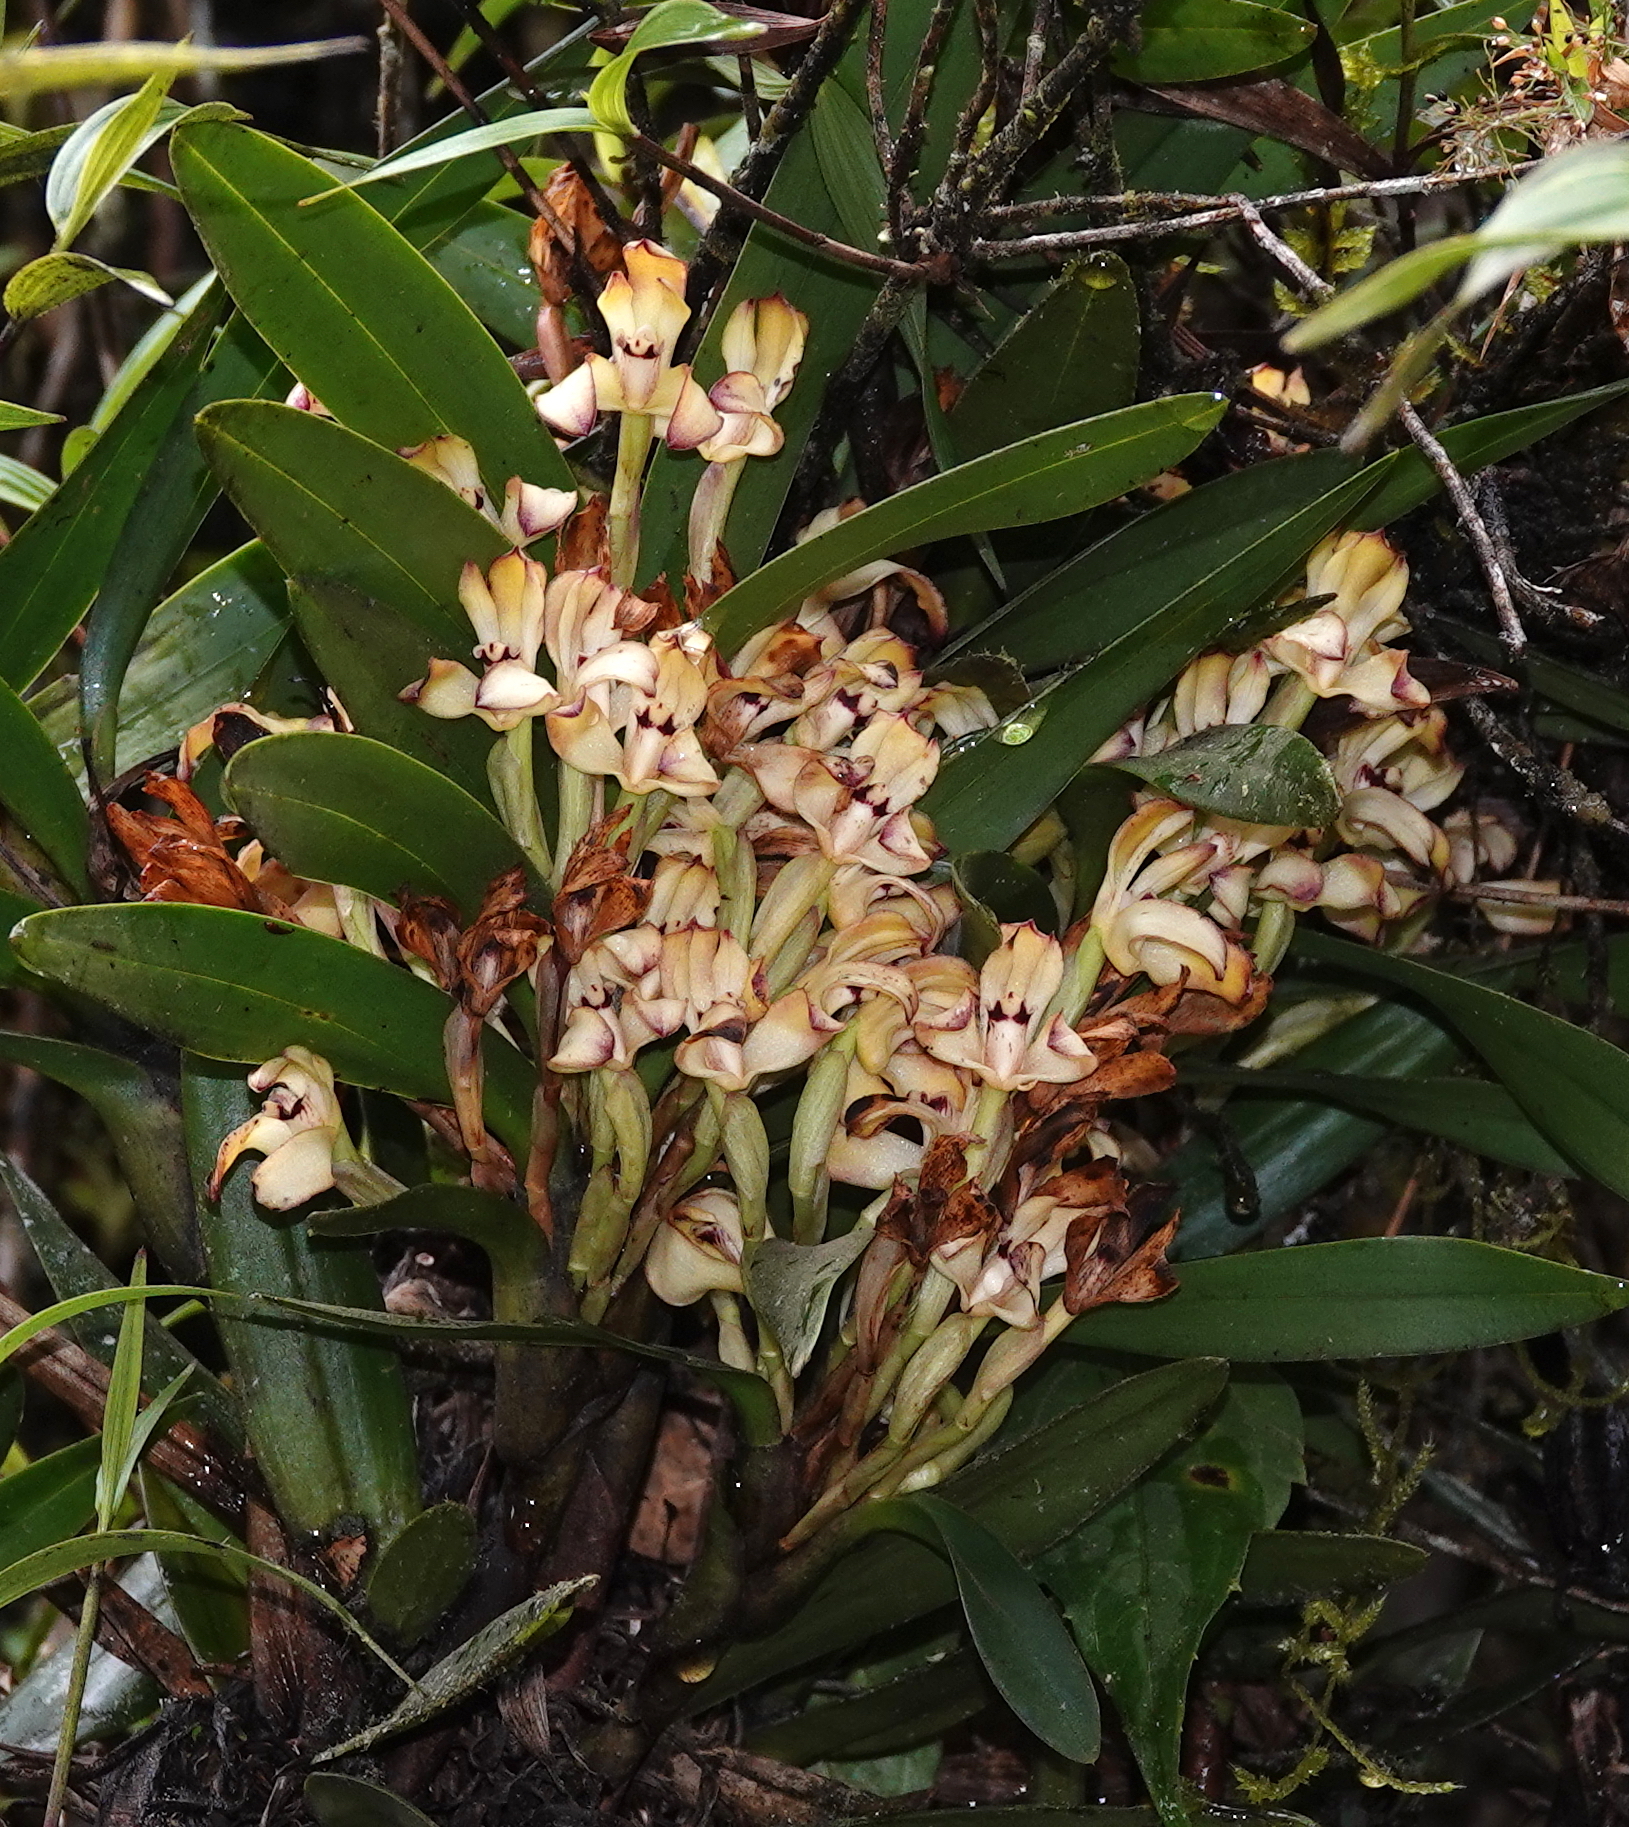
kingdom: Plantae
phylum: Tracheophyta
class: Liliopsida
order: Asparagales
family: Orchidaceae
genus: Maxillaria
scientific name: Maxillaria embreei
